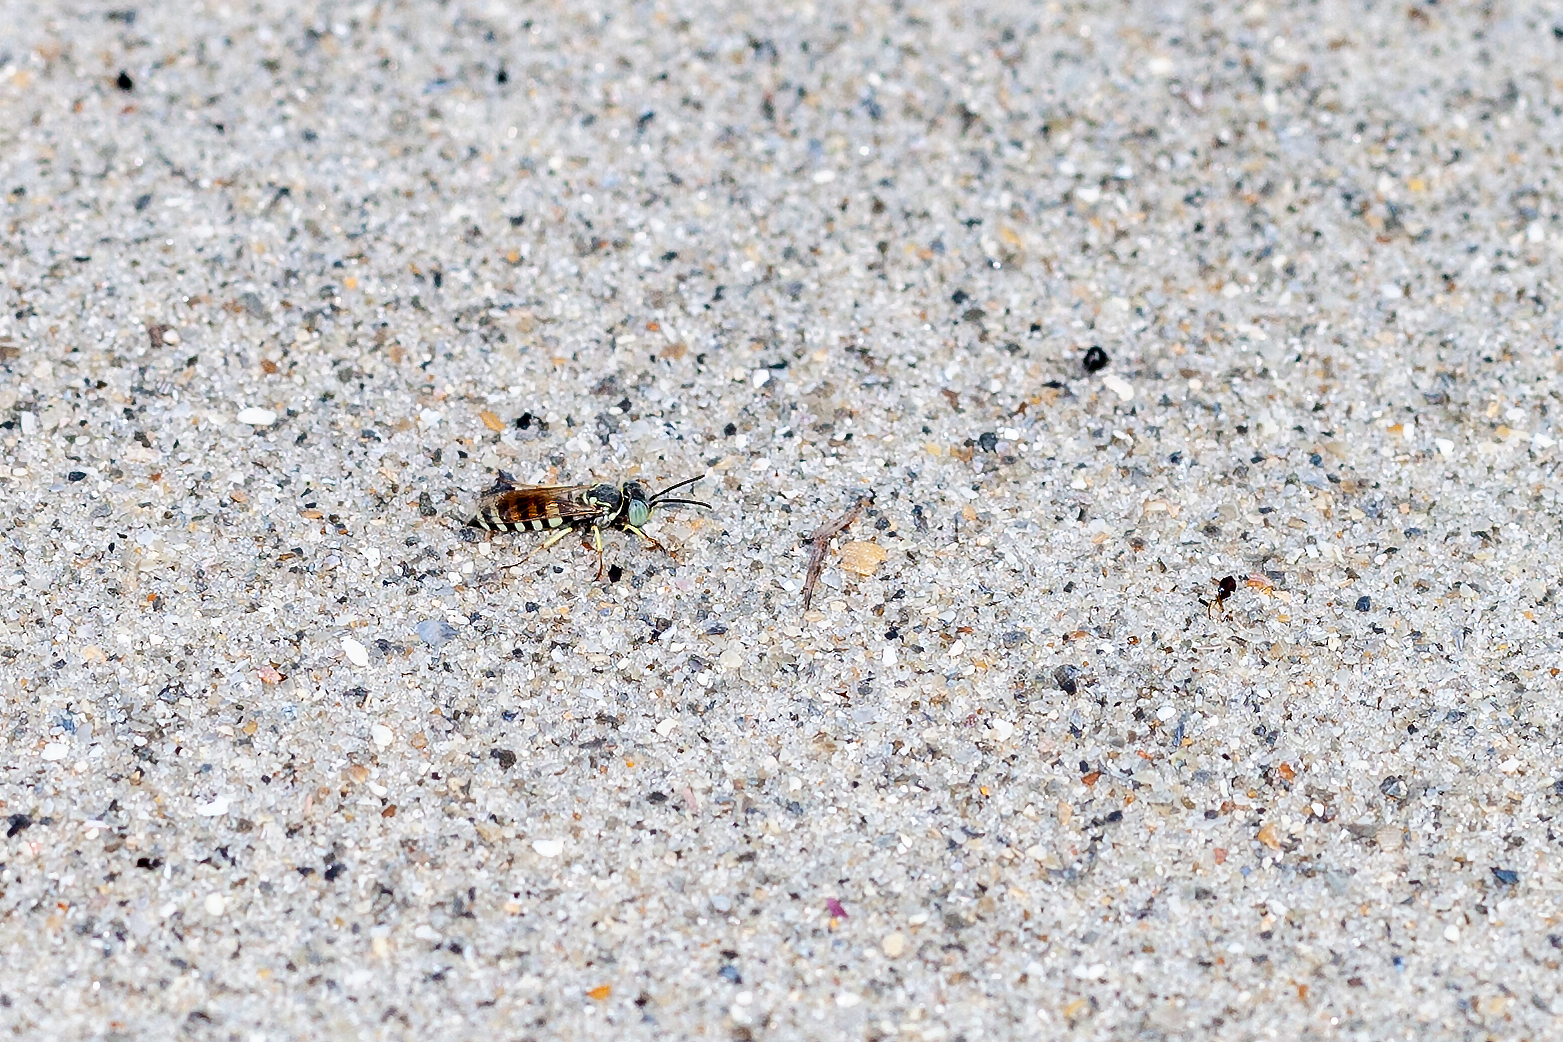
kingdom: Animalia
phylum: Arthropoda
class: Insecta
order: Hymenoptera
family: Crabronidae
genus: Microbembex
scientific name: Microbembex monodonta
